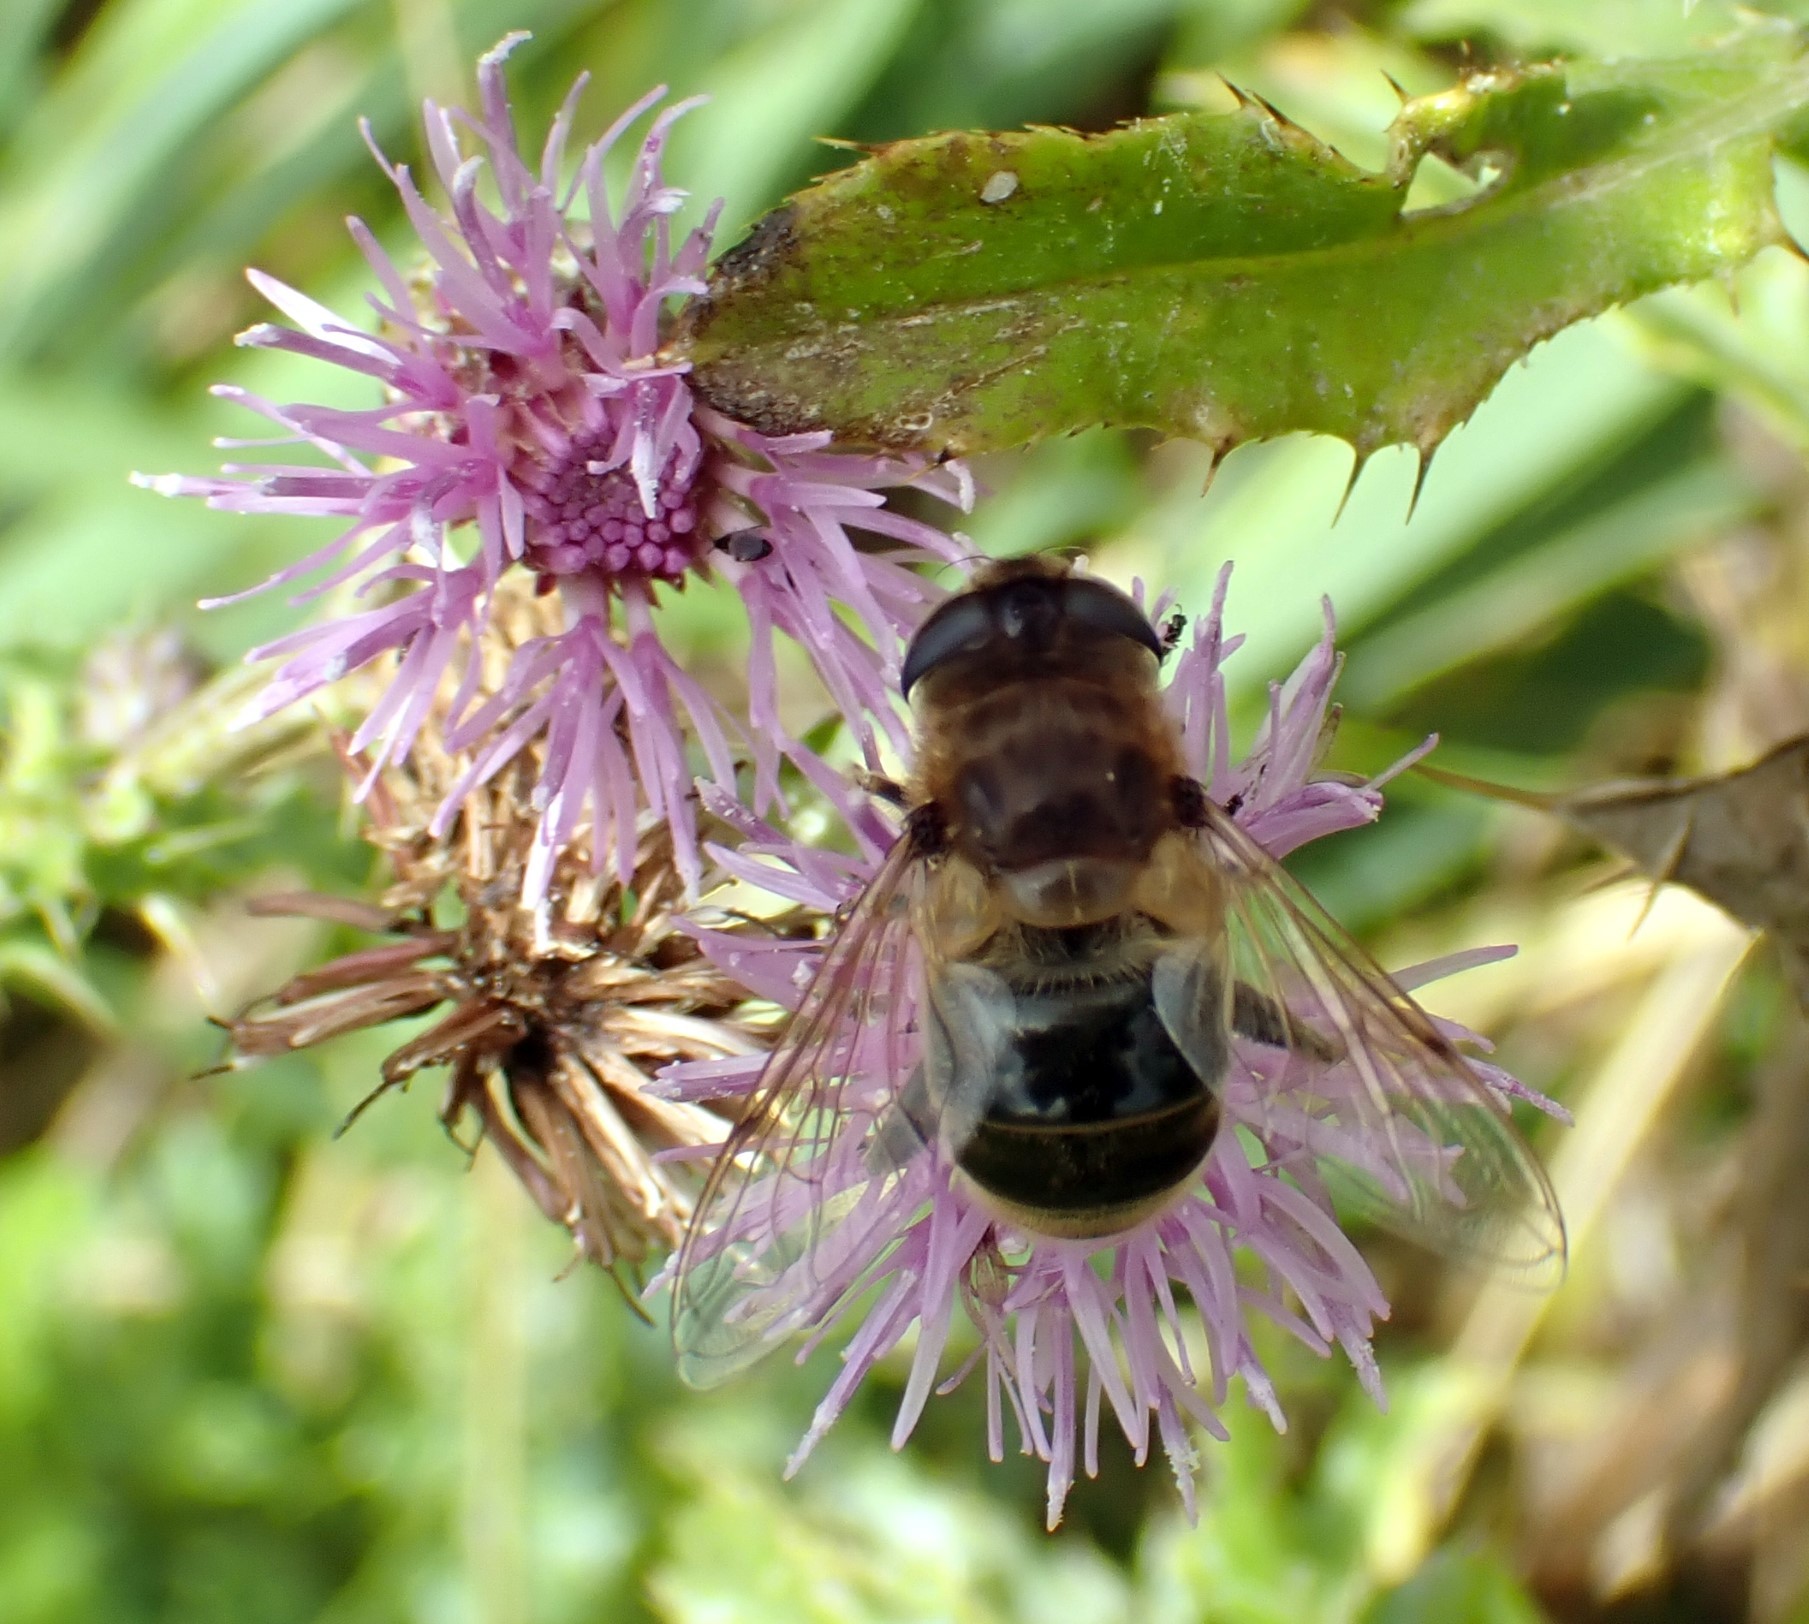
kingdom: Animalia
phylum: Arthropoda
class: Insecta
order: Diptera
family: Syrphidae
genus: Eristalis
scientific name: Eristalis tenax
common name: Drone fly
